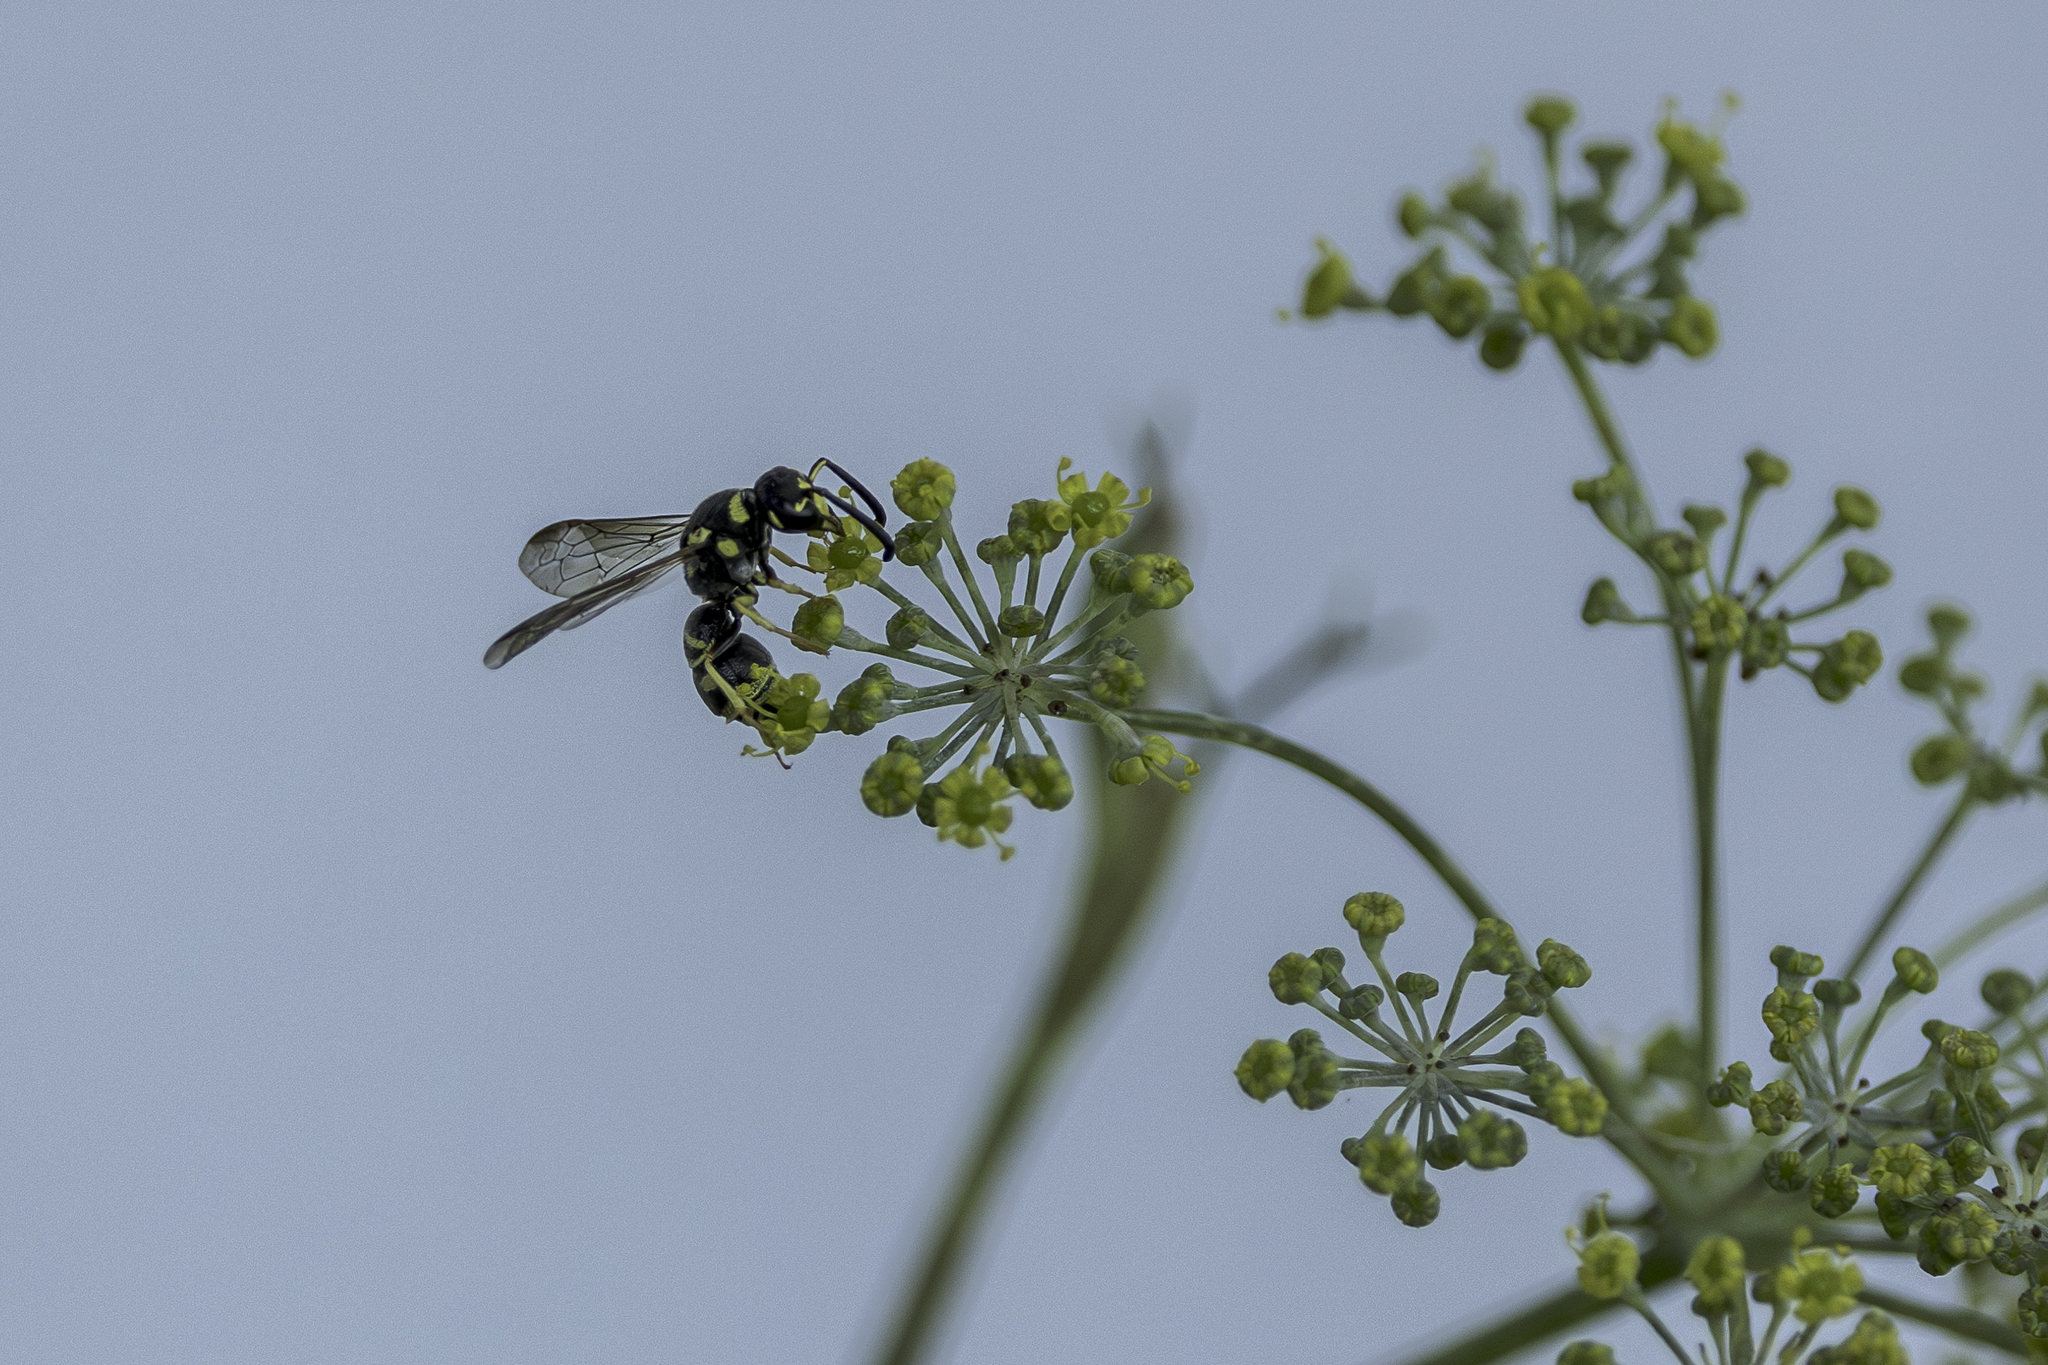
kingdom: Animalia
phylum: Arthropoda
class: Insecta
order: Hymenoptera
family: Eumenidae
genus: Parancistrocerus
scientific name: Parancistrocerus leionotus
